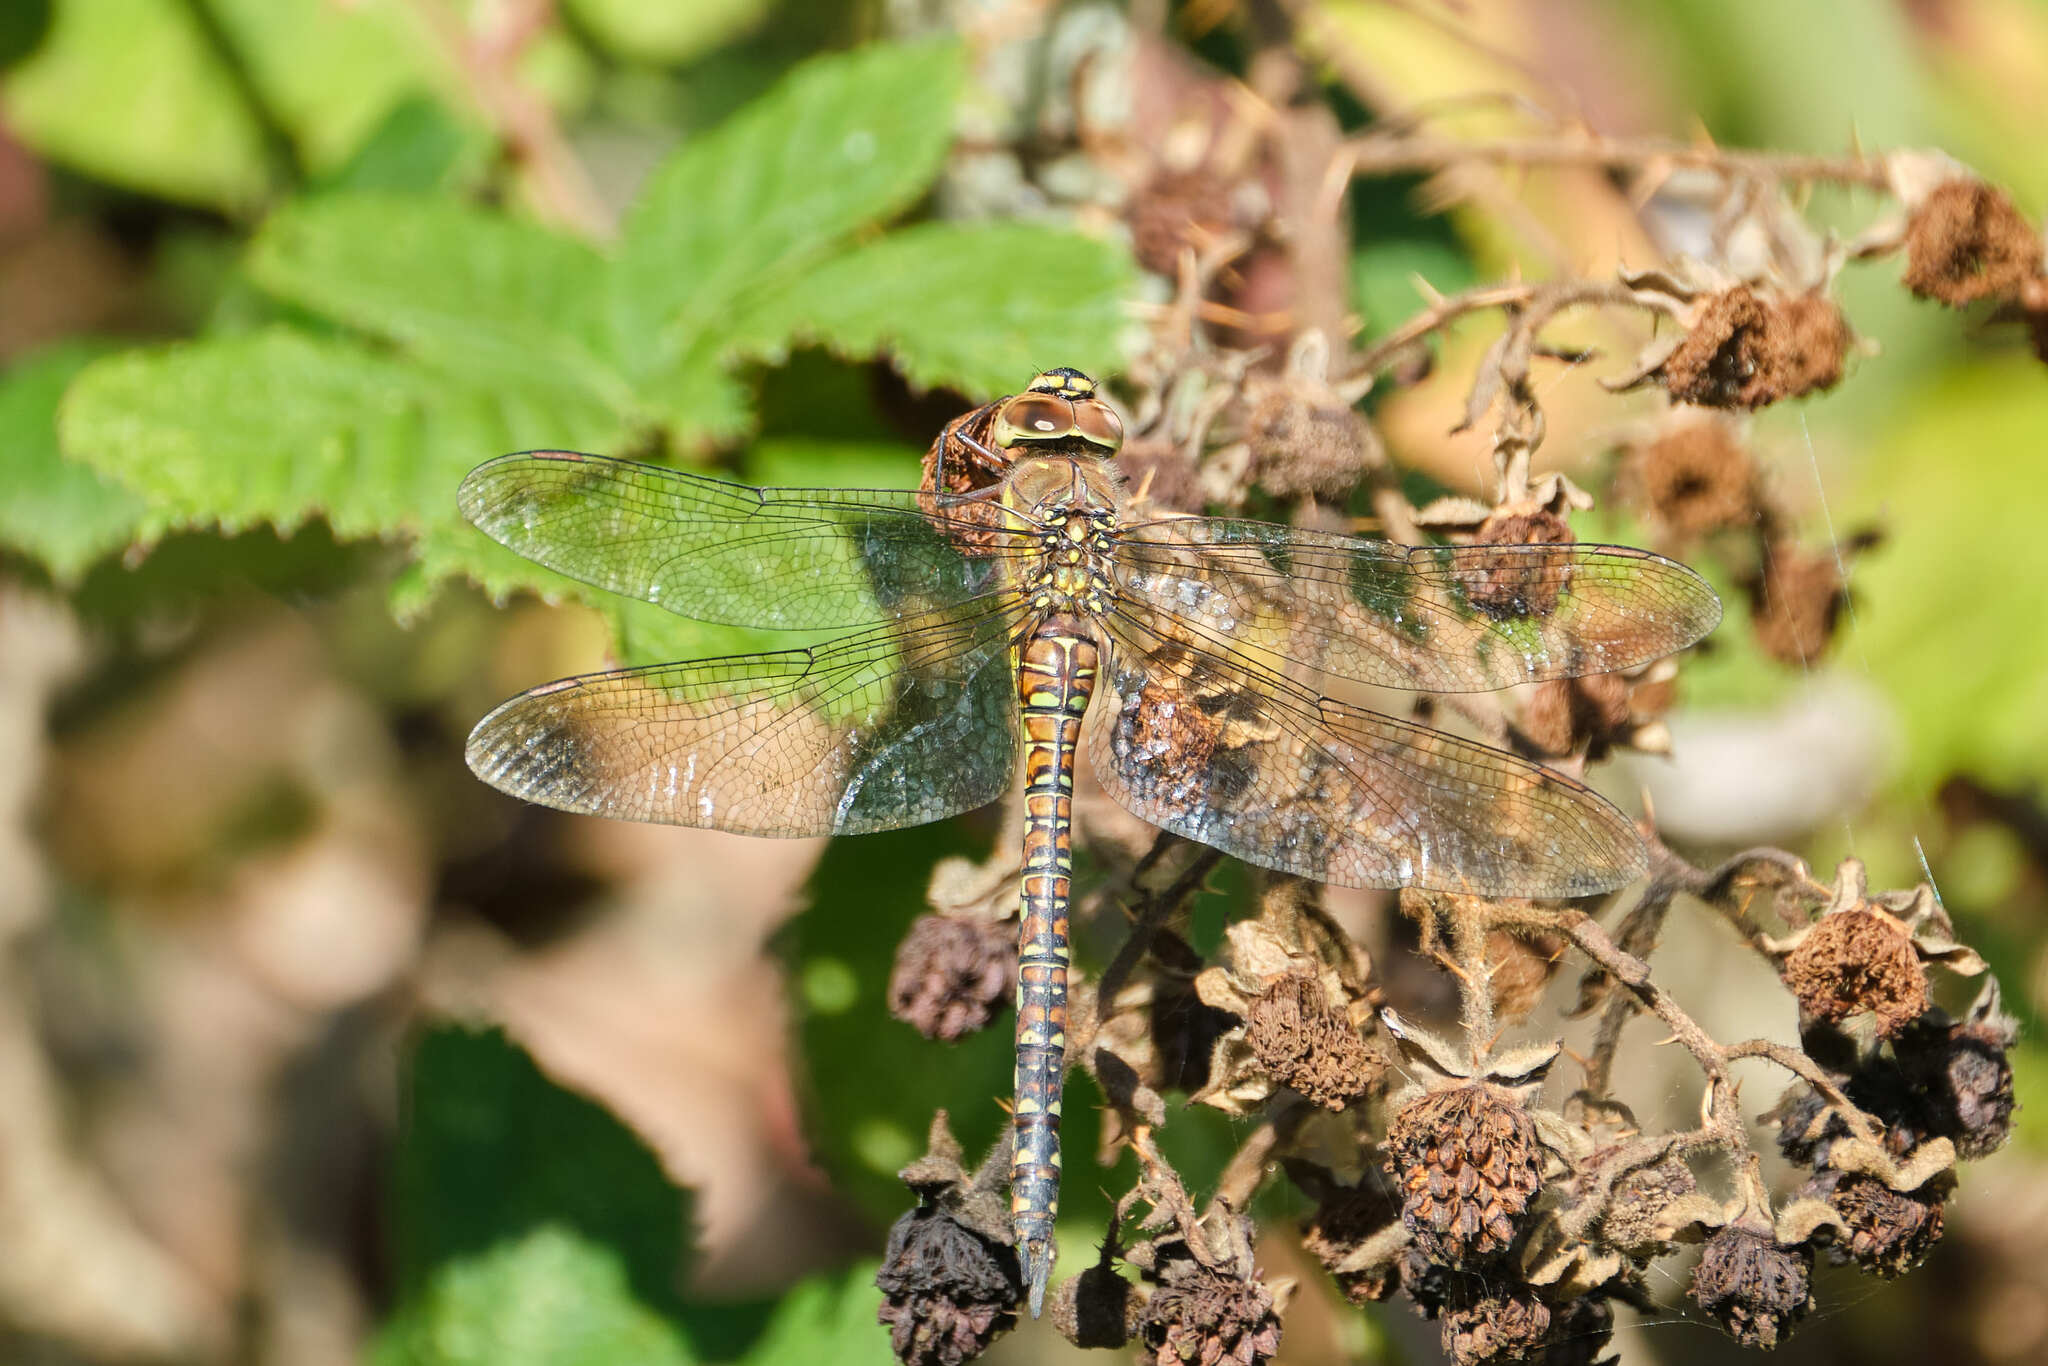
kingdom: Animalia
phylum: Arthropoda
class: Insecta
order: Odonata
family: Aeshnidae
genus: Aeshna
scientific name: Aeshna mixta
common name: Migrant hawker
